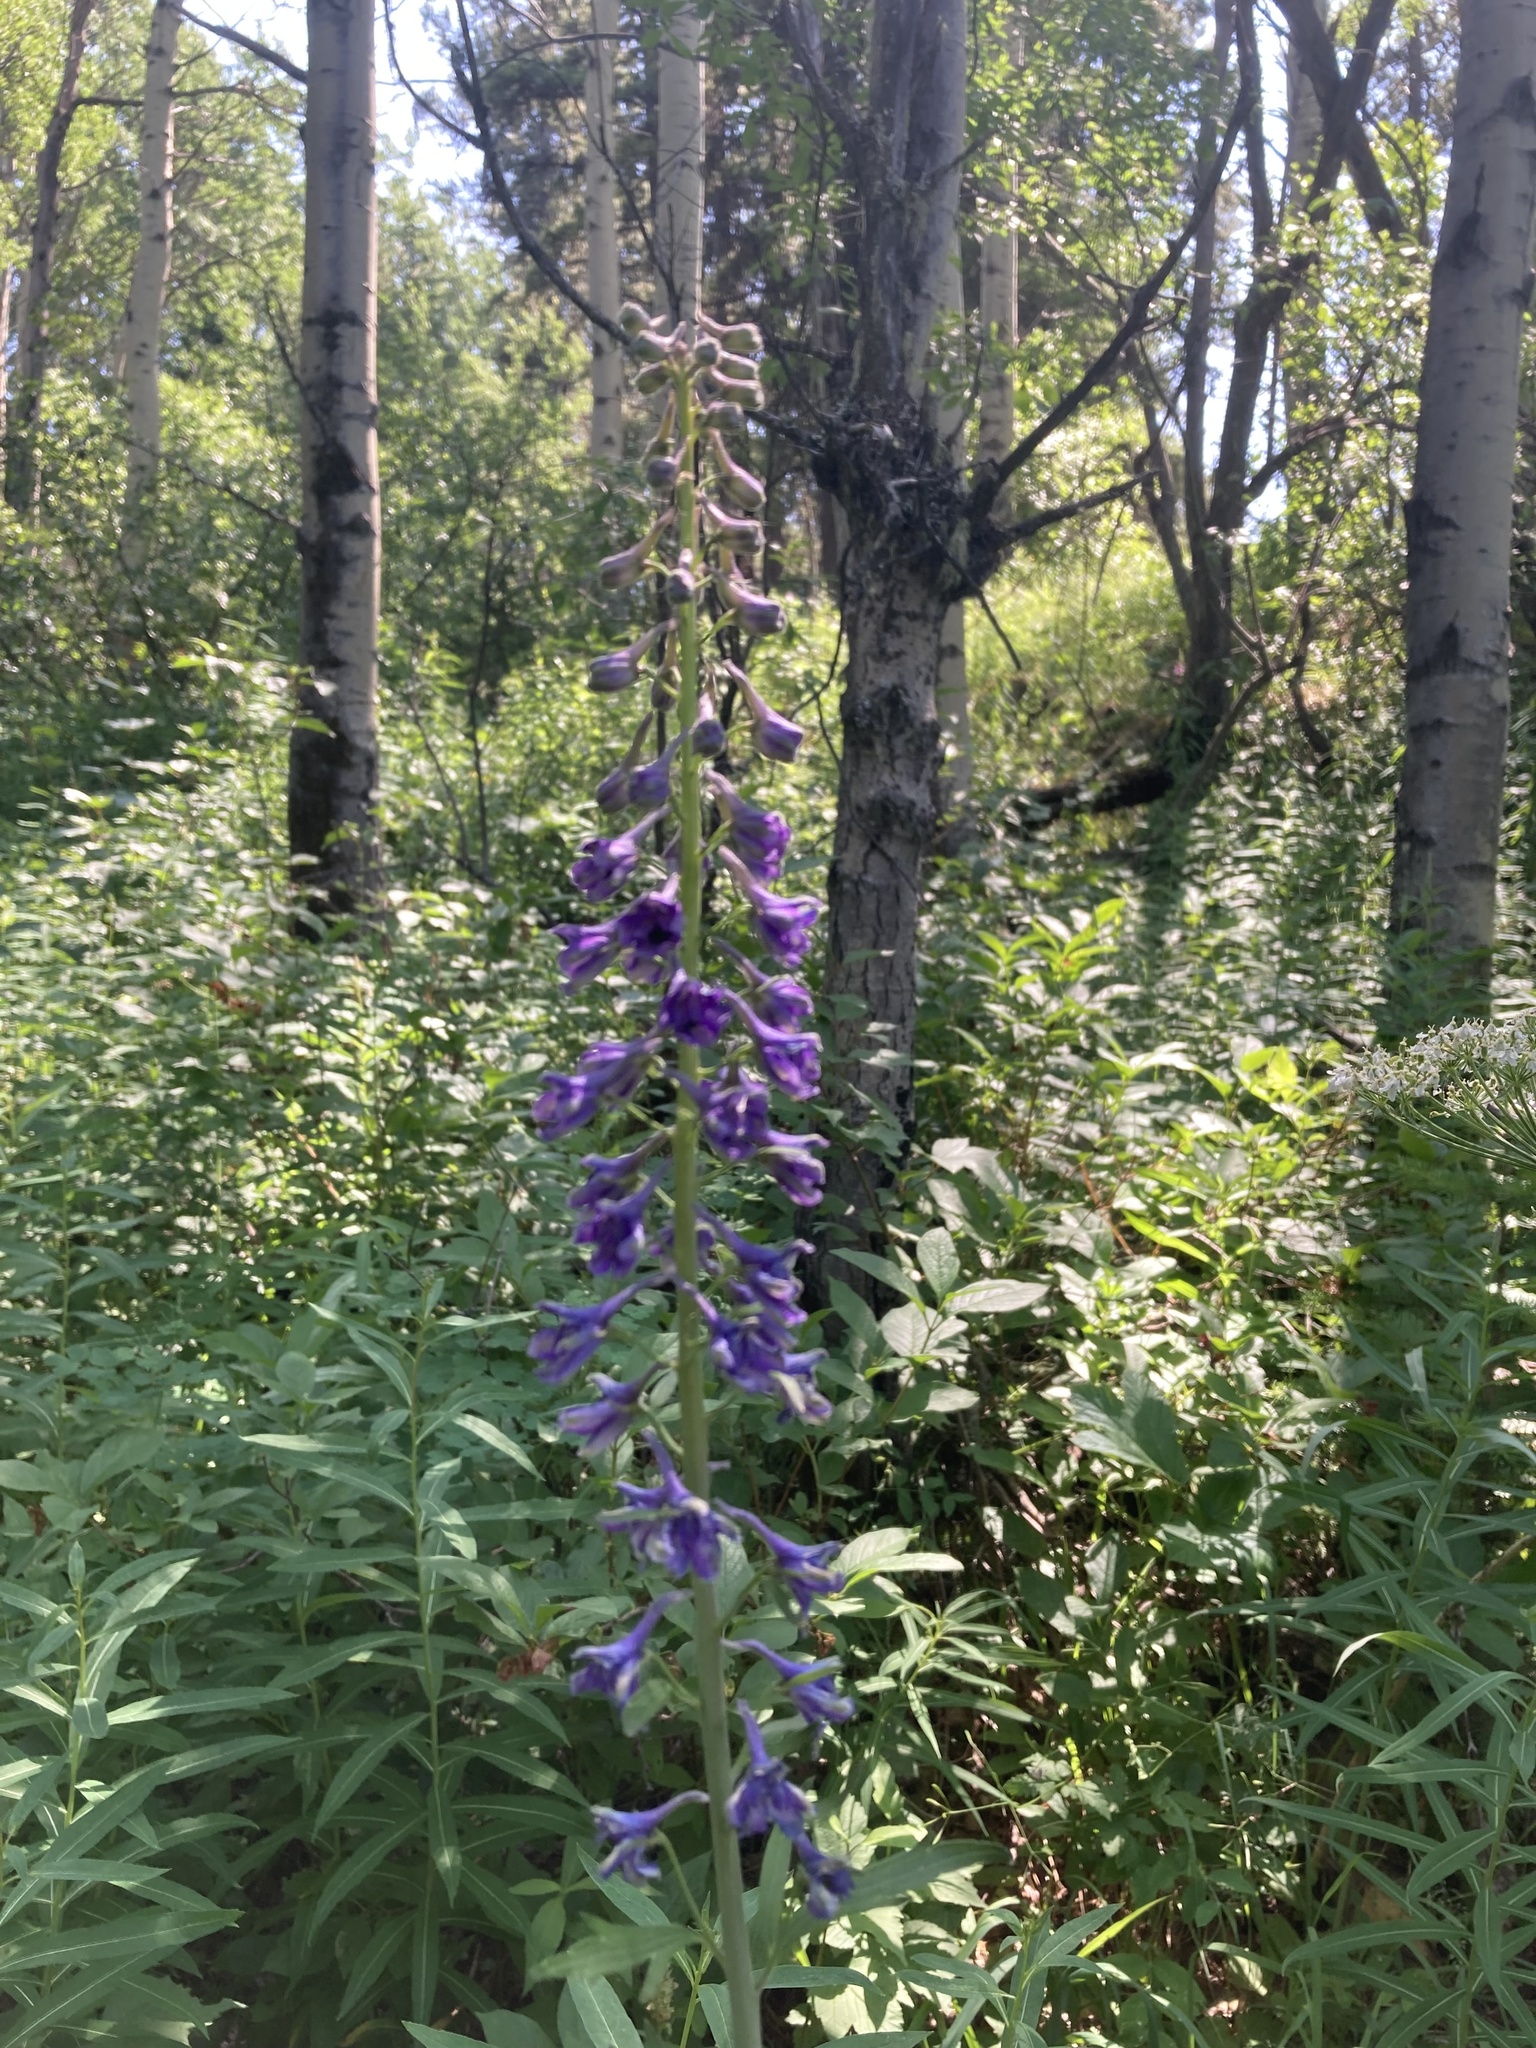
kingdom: Plantae
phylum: Tracheophyta
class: Magnoliopsida
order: Ranunculales
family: Ranunculaceae
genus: Delphinium
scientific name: Delphinium glaucum
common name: Brown's larkspur
